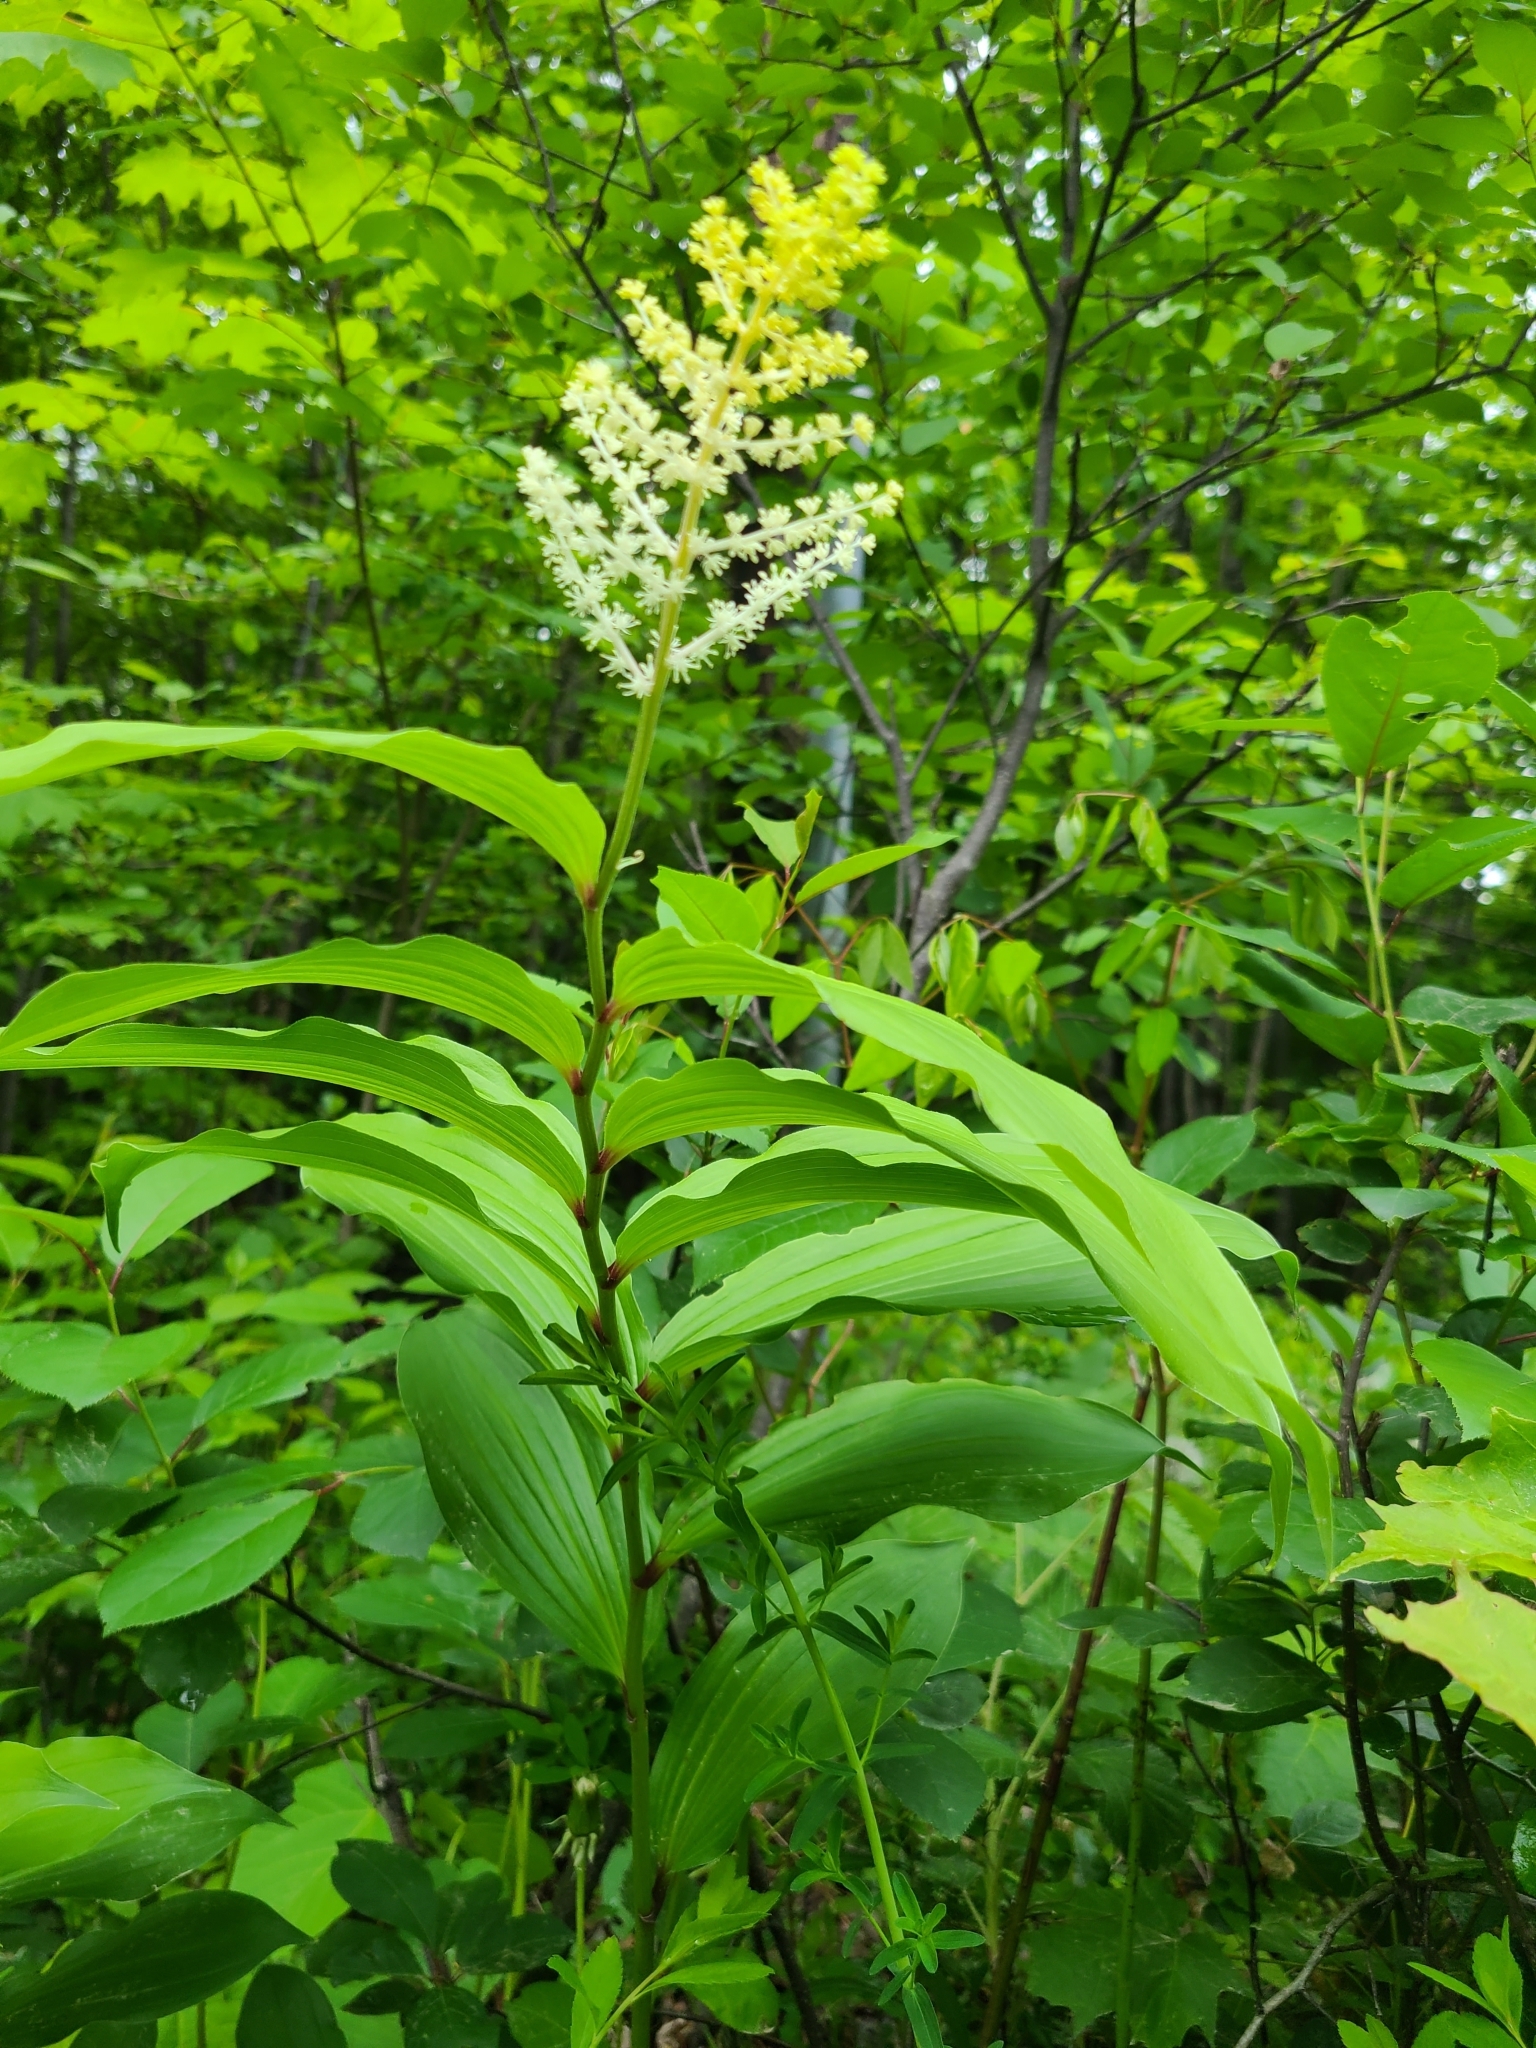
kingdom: Plantae
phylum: Tracheophyta
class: Liliopsida
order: Asparagales
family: Asparagaceae
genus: Maianthemum
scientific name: Maianthemum racemosum
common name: False spikenard
